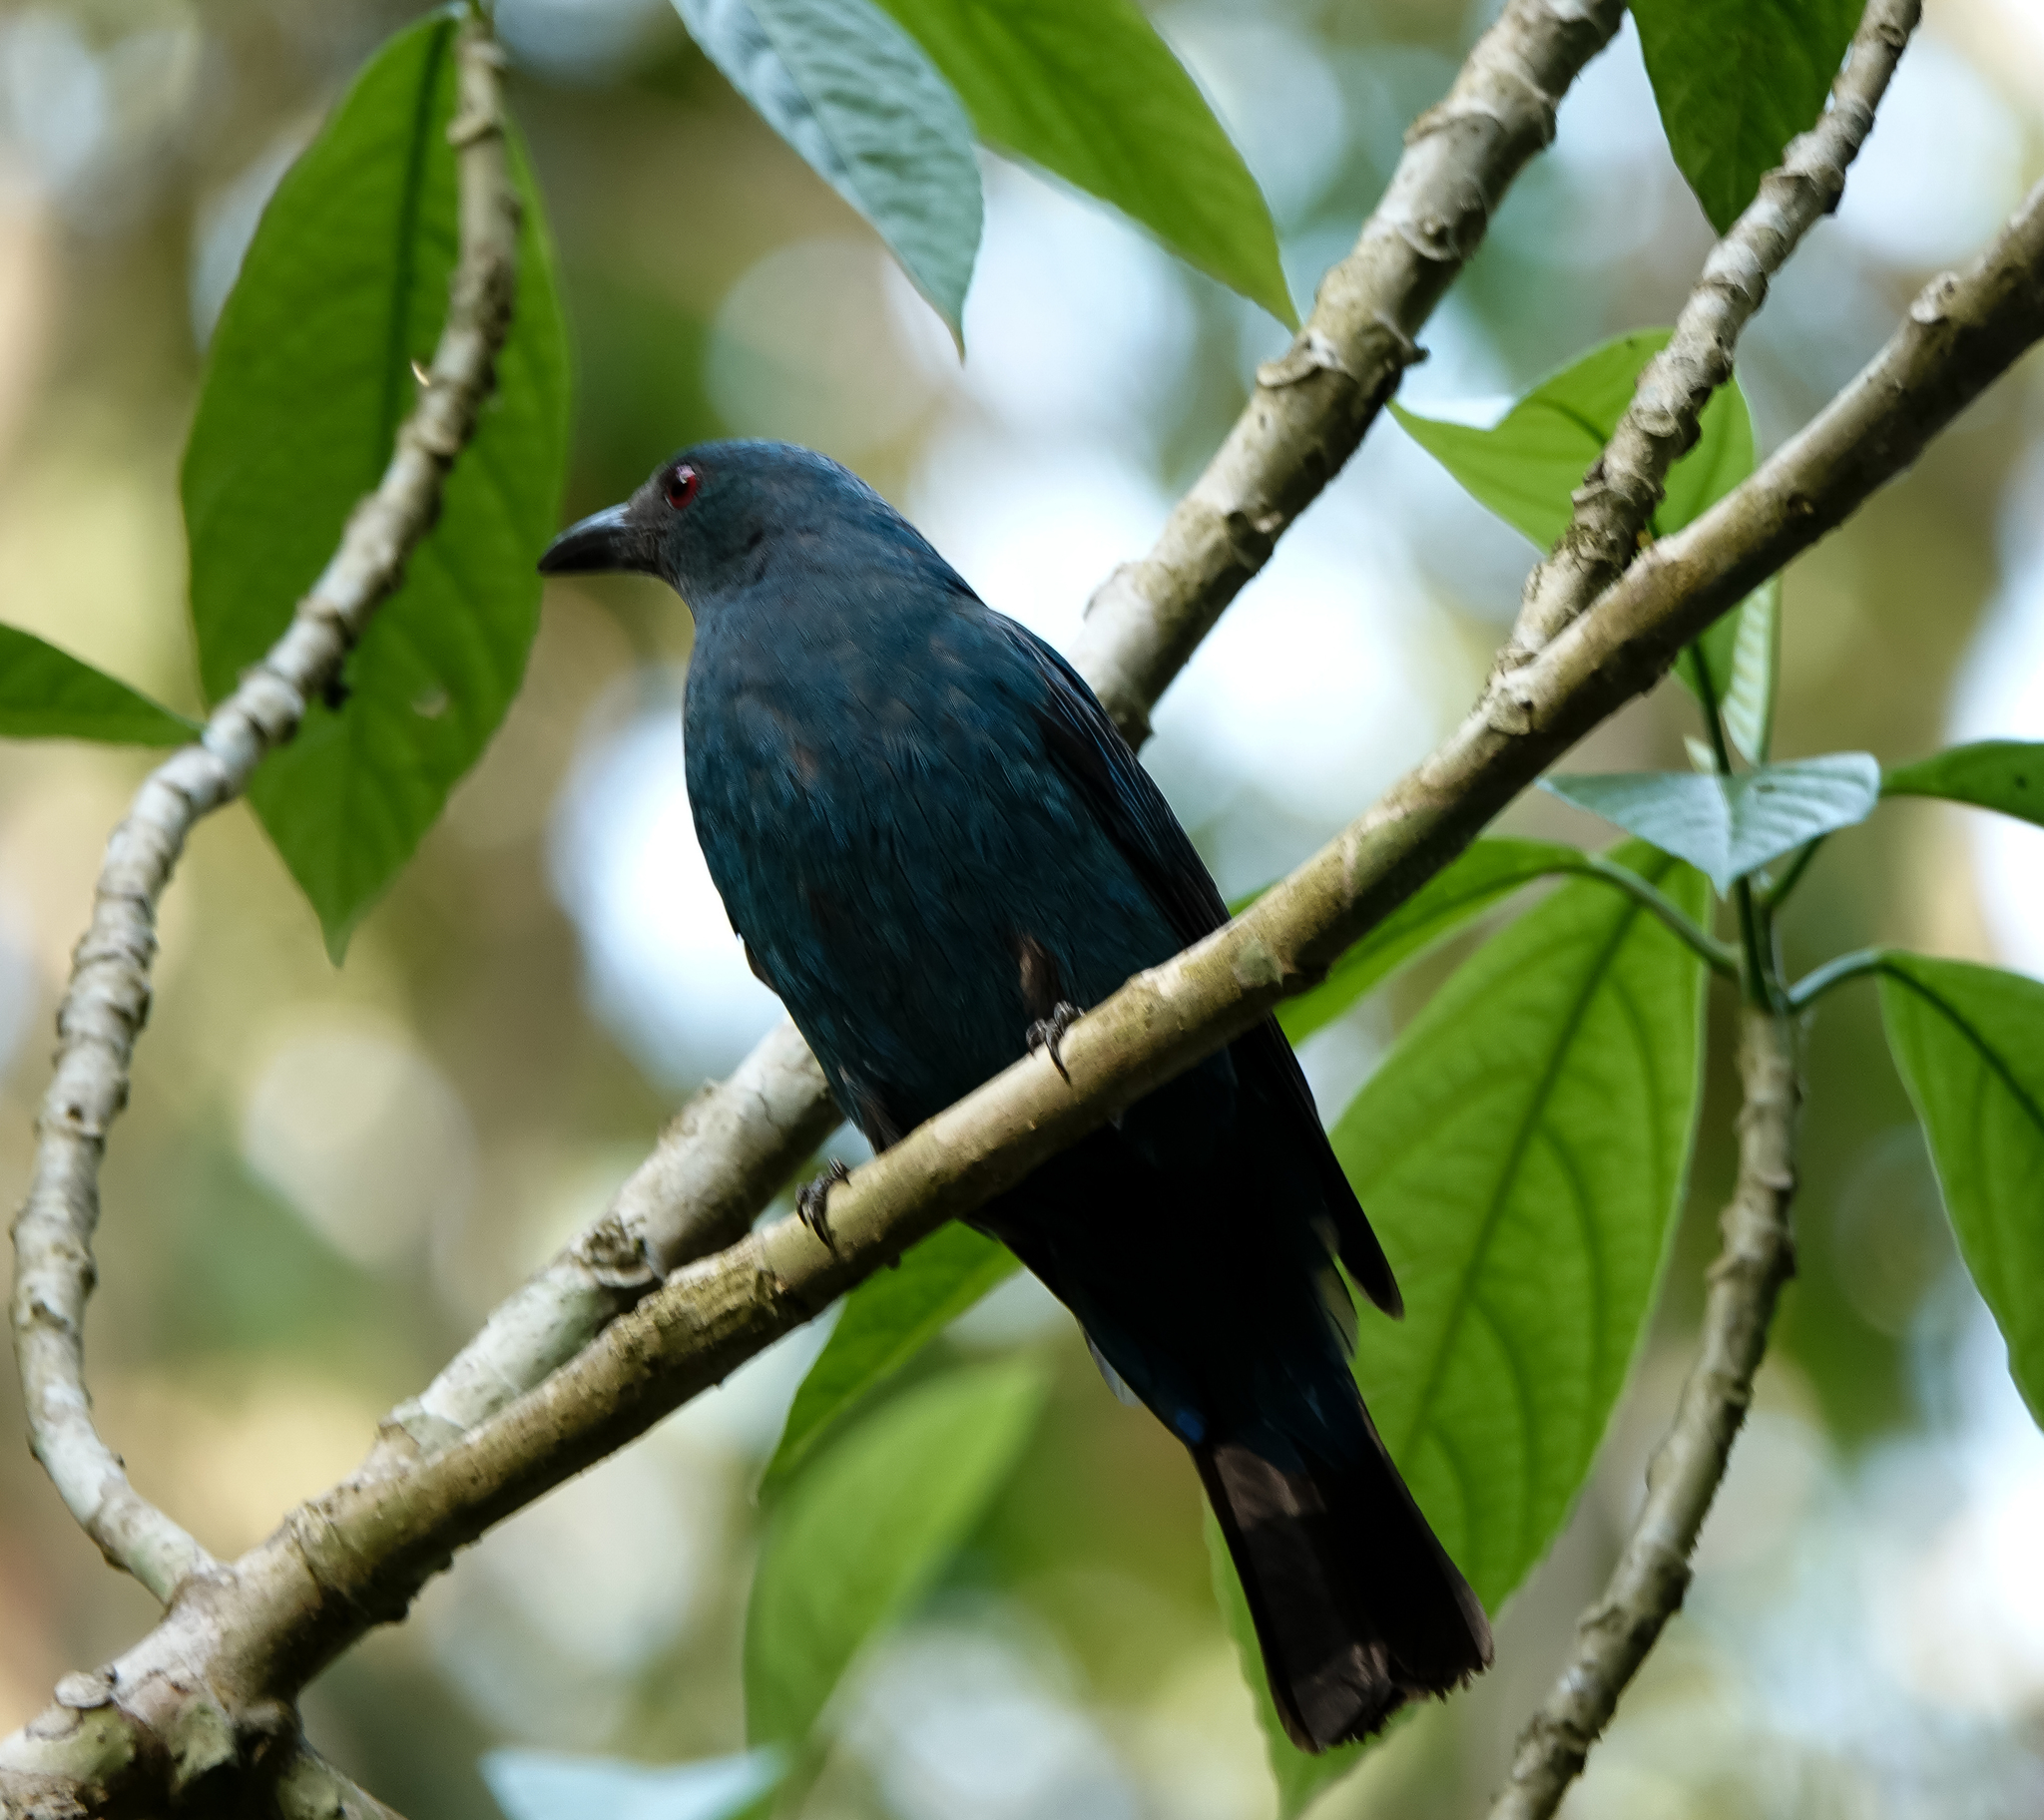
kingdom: Animalia
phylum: Chordata
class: Aves
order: Passeriformes
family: Irenidae
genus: Irena
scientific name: Irena puella
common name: Asian fairy-bluebird
